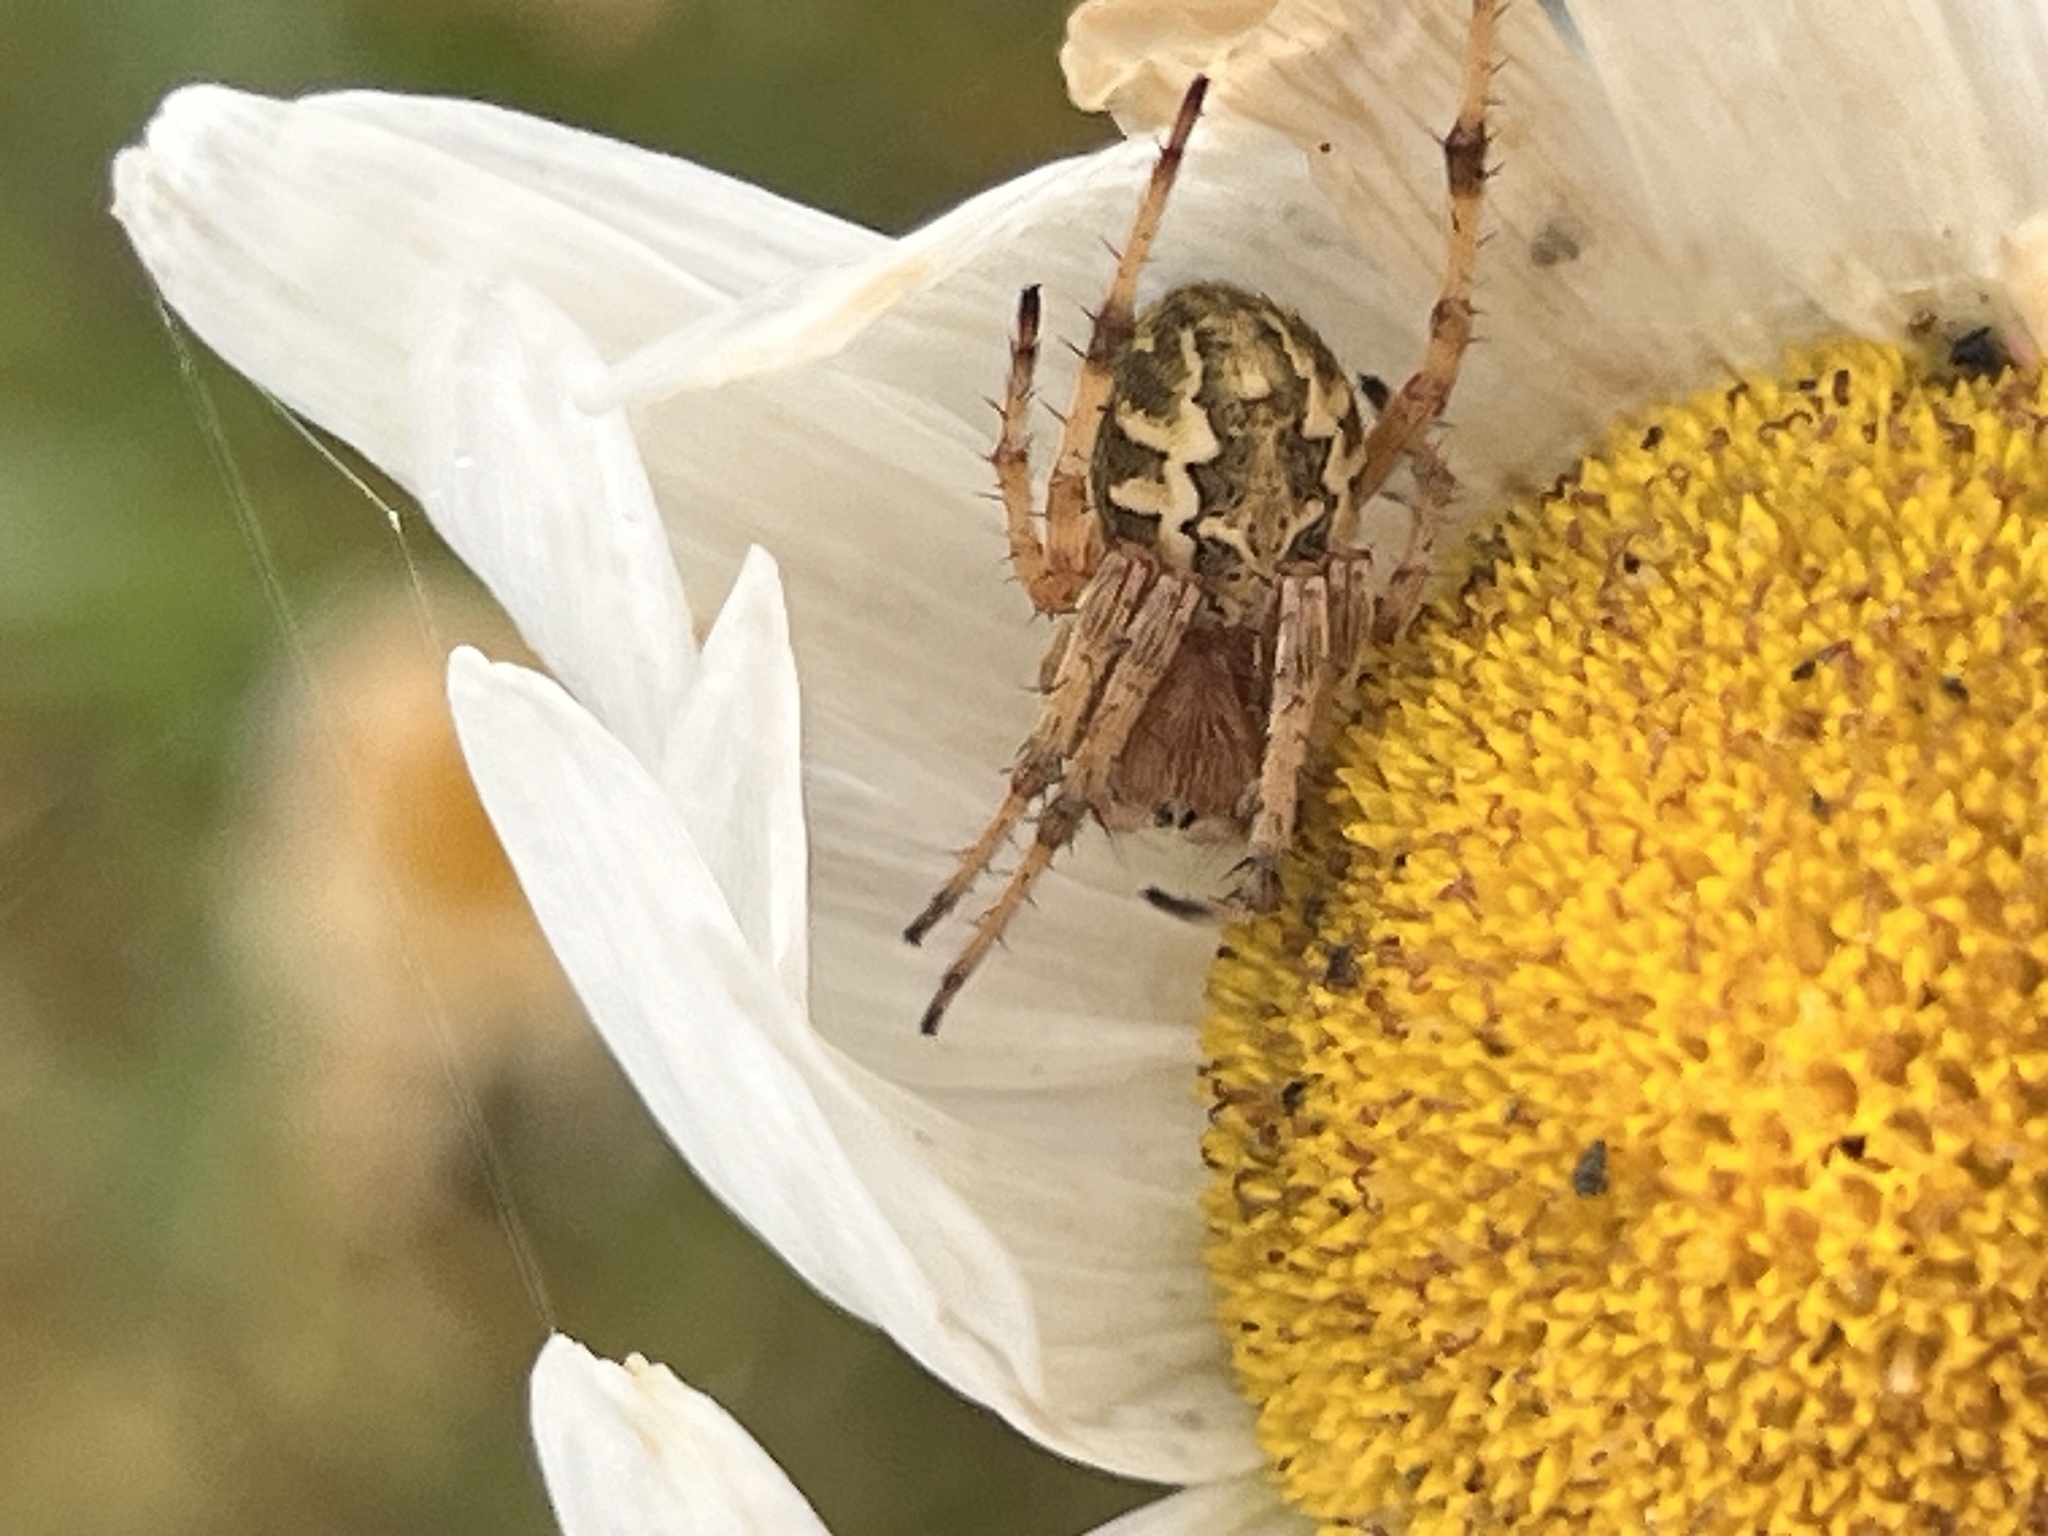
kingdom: Animalia
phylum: Arthropoda
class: Arachnida
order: Araneae
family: Araneidae
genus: Salsa
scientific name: Salsa fuliginata
